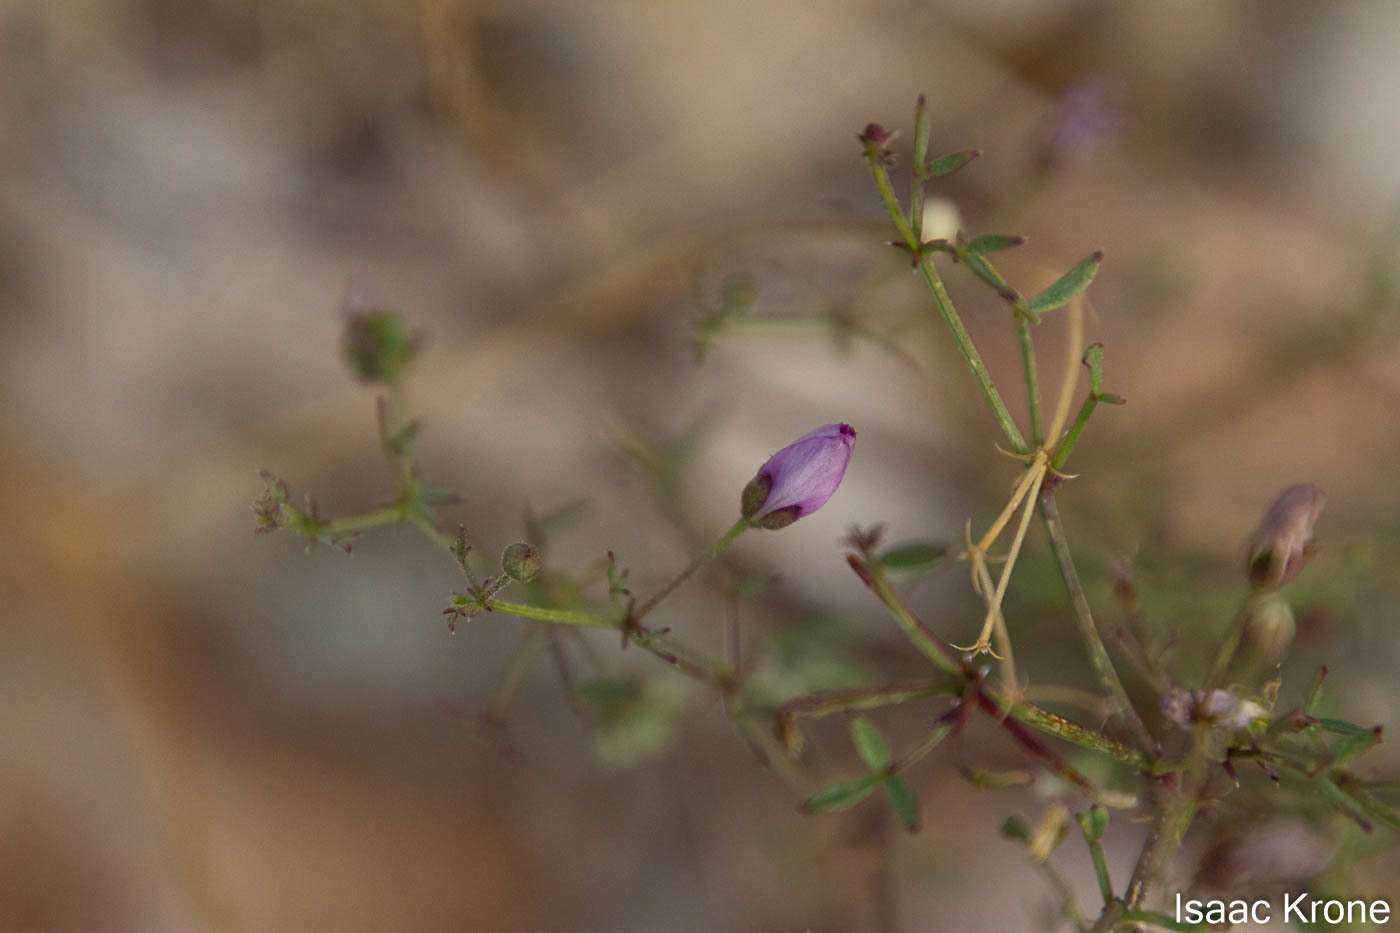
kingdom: Plantae
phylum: Tracheophyta
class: Magnoliopsida
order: Zygophyllales
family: Zygophyllaceae
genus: Fagonia
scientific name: Fagonia laevis
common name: California fagonbush
